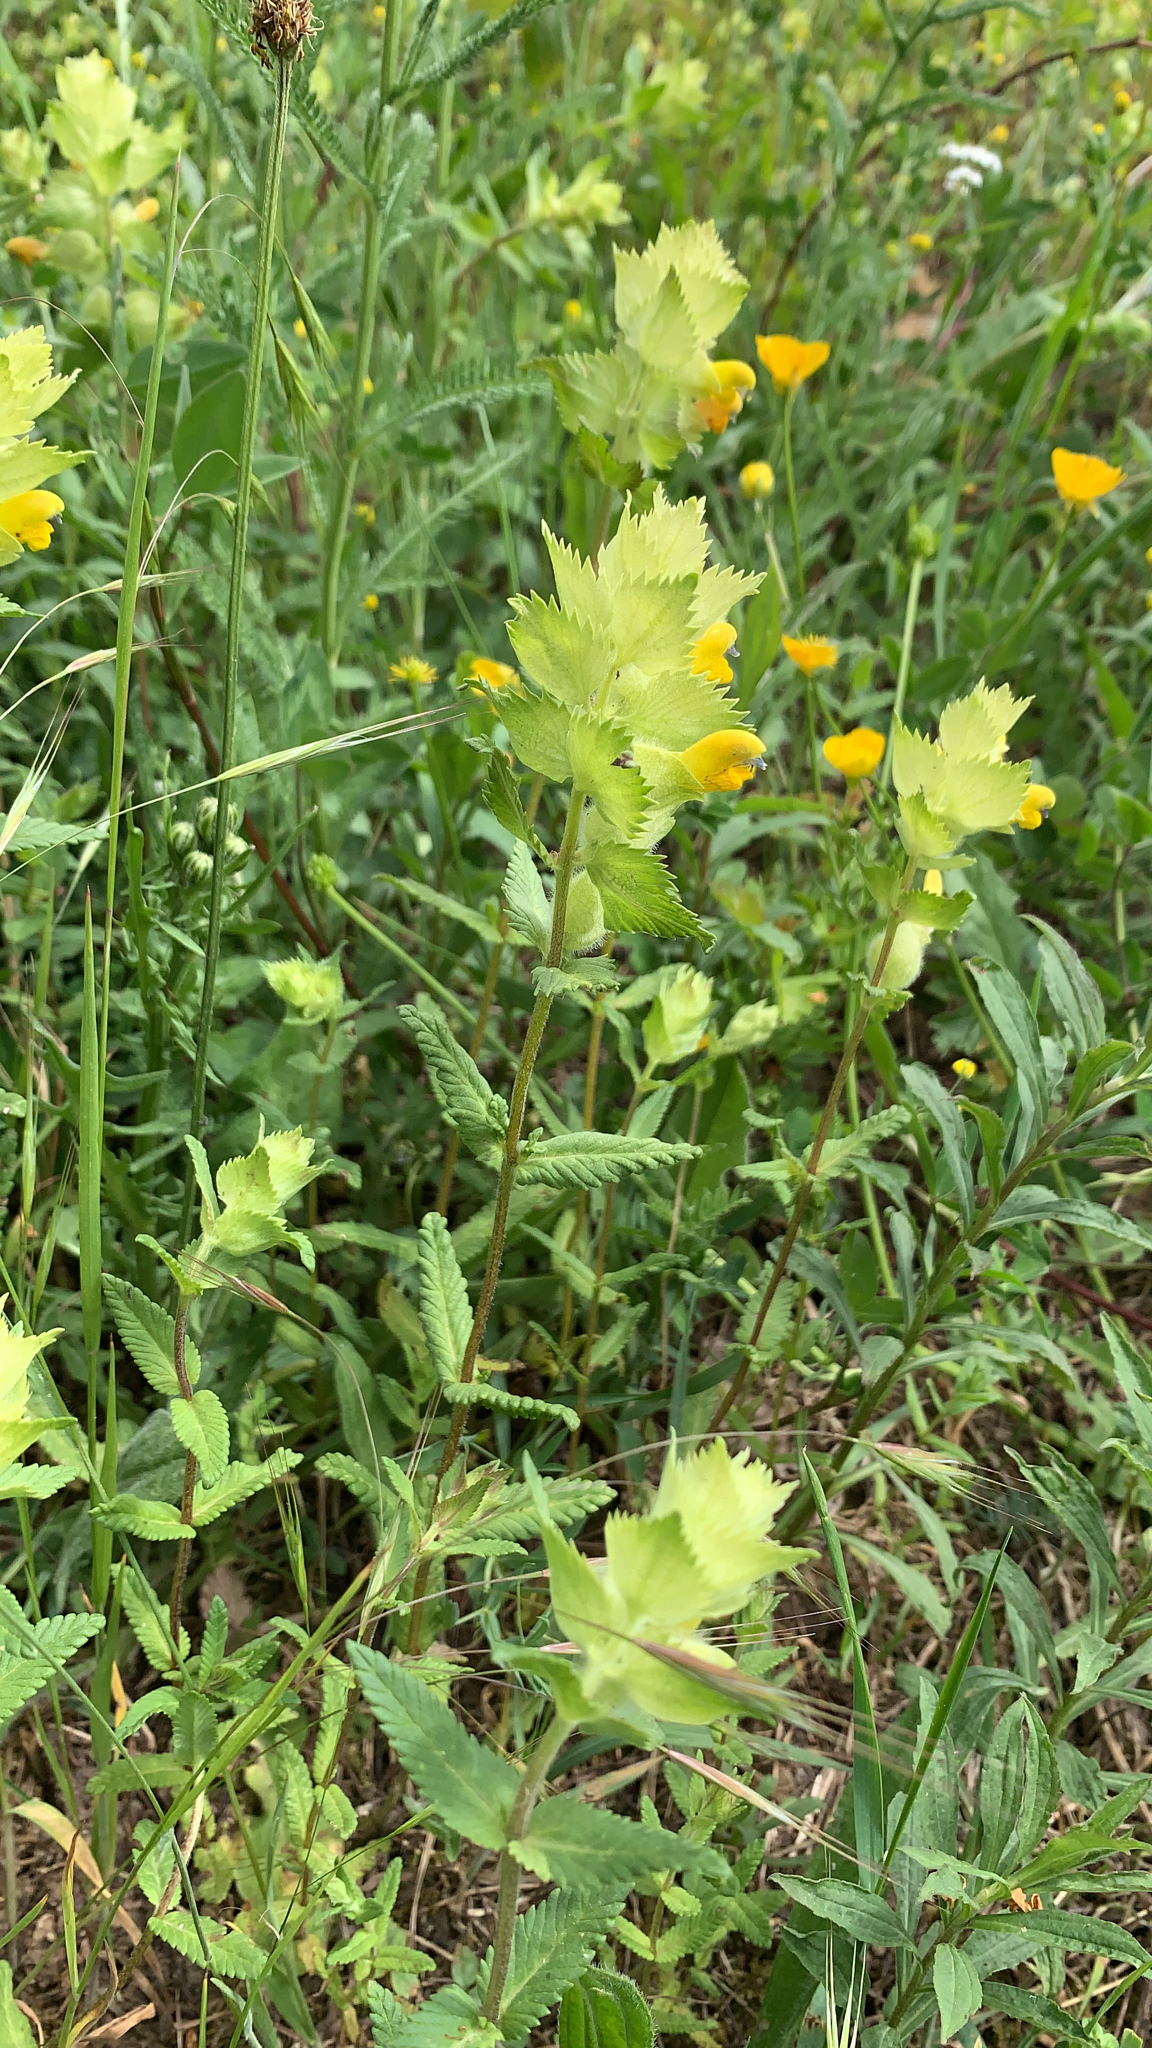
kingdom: Plantae
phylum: Tracheophyta
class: Magnoliopsida
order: Lamiales
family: Orobanchaceae
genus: Rhinanthus
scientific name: Rhinanthus alectorolophus
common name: Greater yellow-rattle
